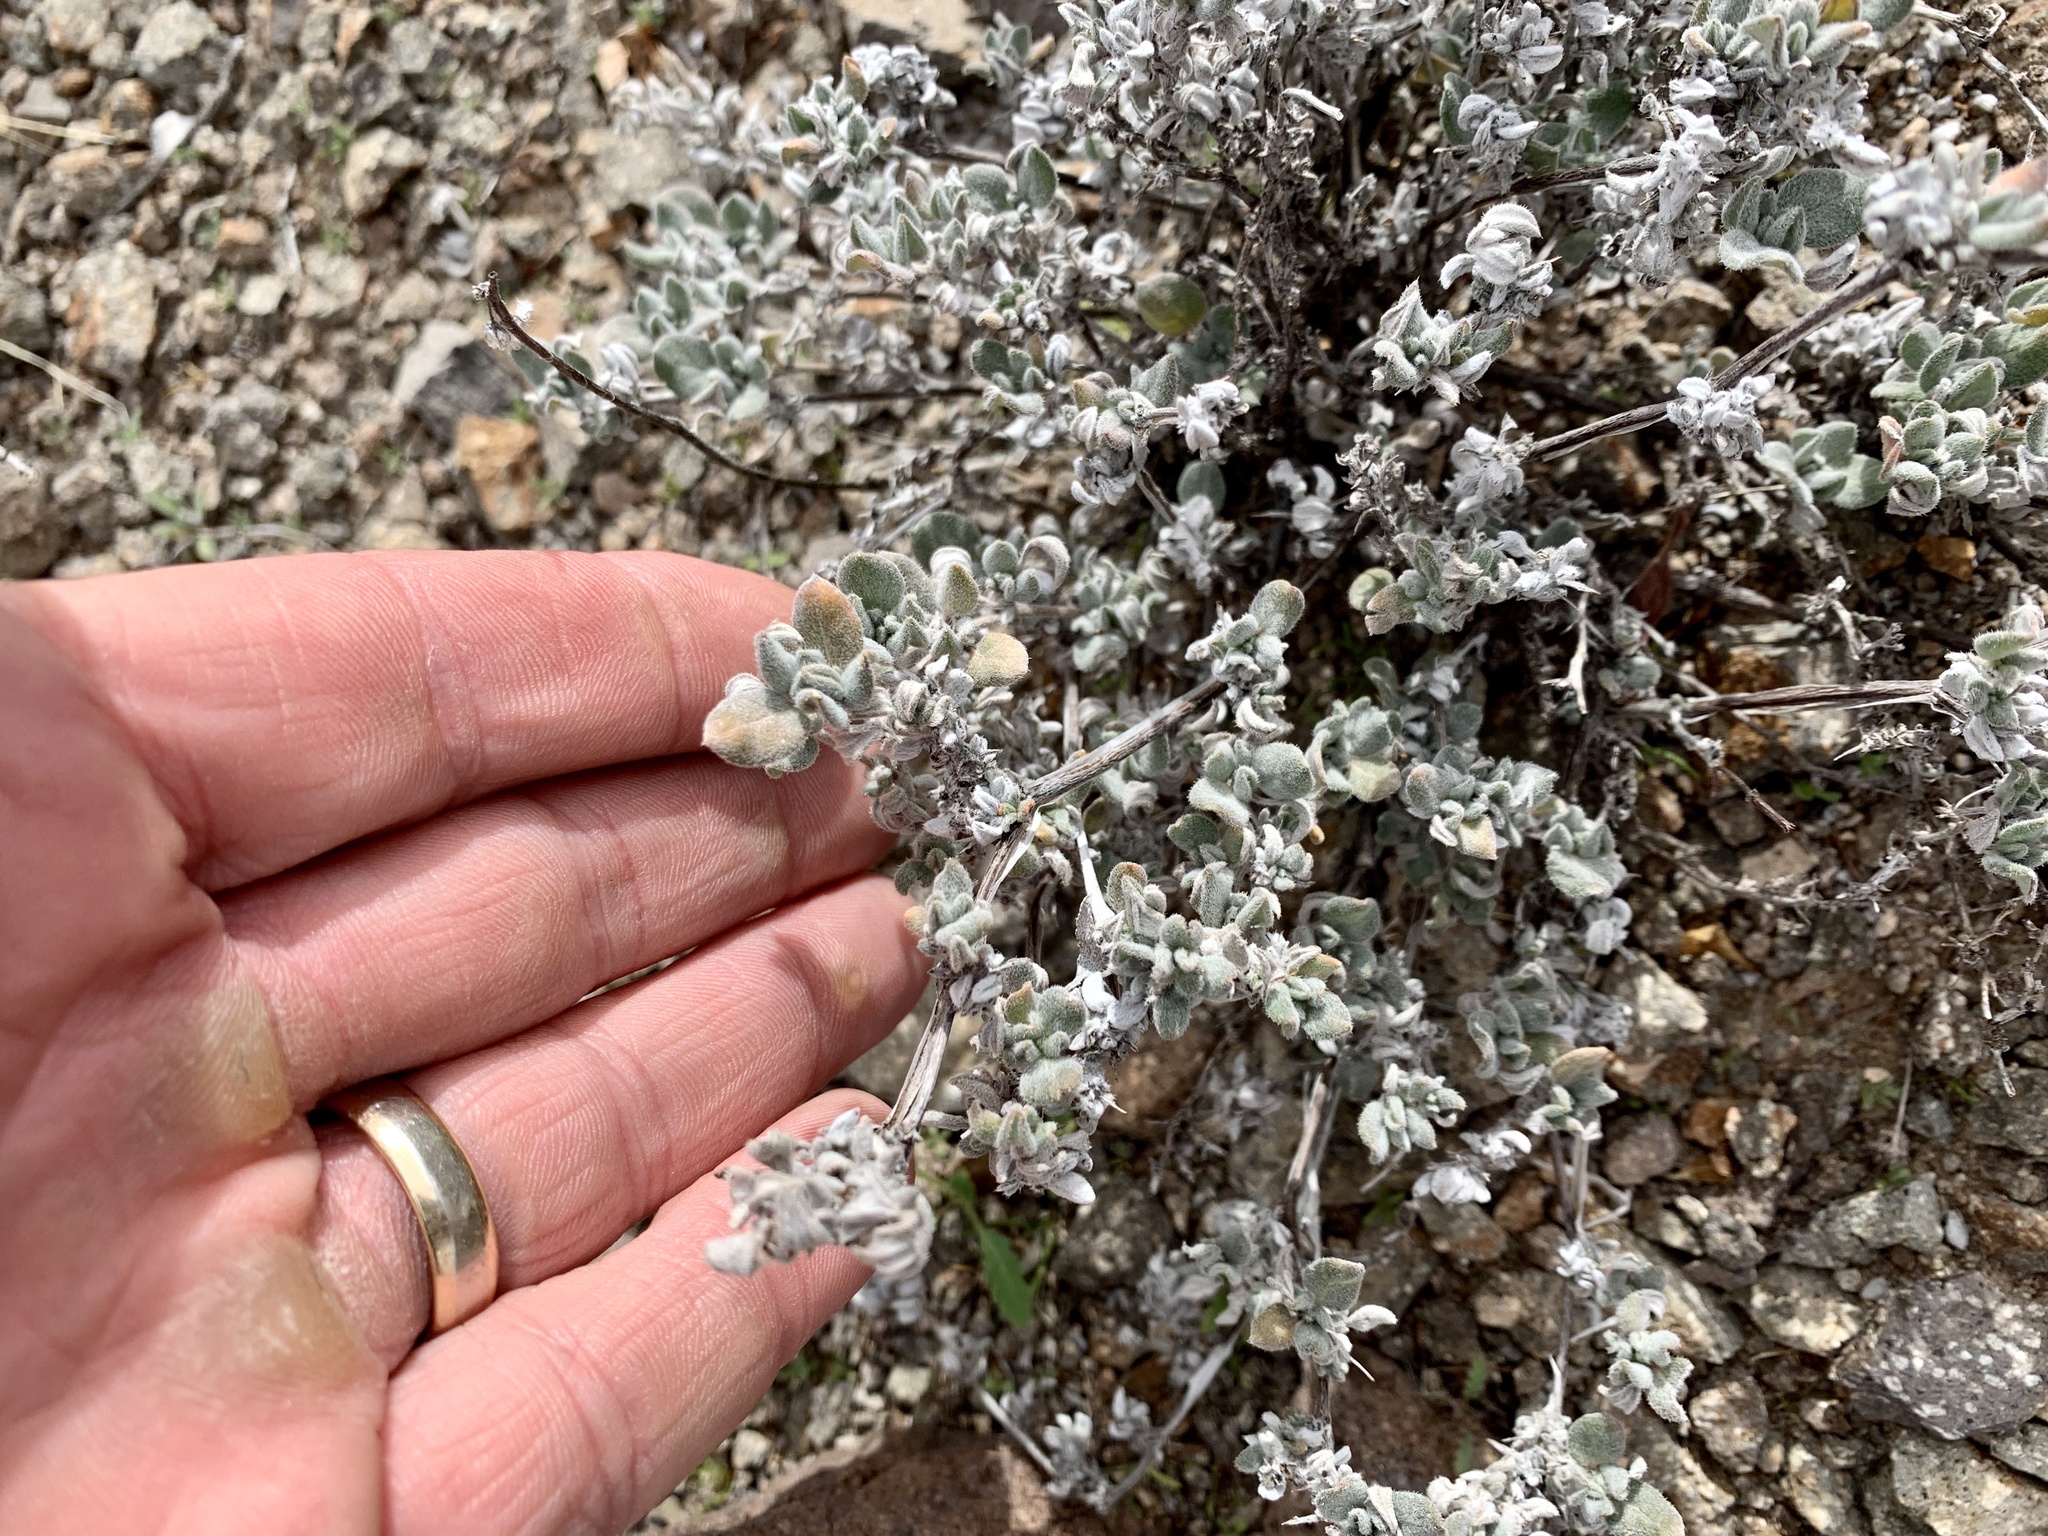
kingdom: Plantae
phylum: Tracheophyta
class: Magnoliopsida
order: Boraginales
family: Ehretiaceae
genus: Tiquilia
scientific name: Tiquilia canescens
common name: Hairy tiquilia
